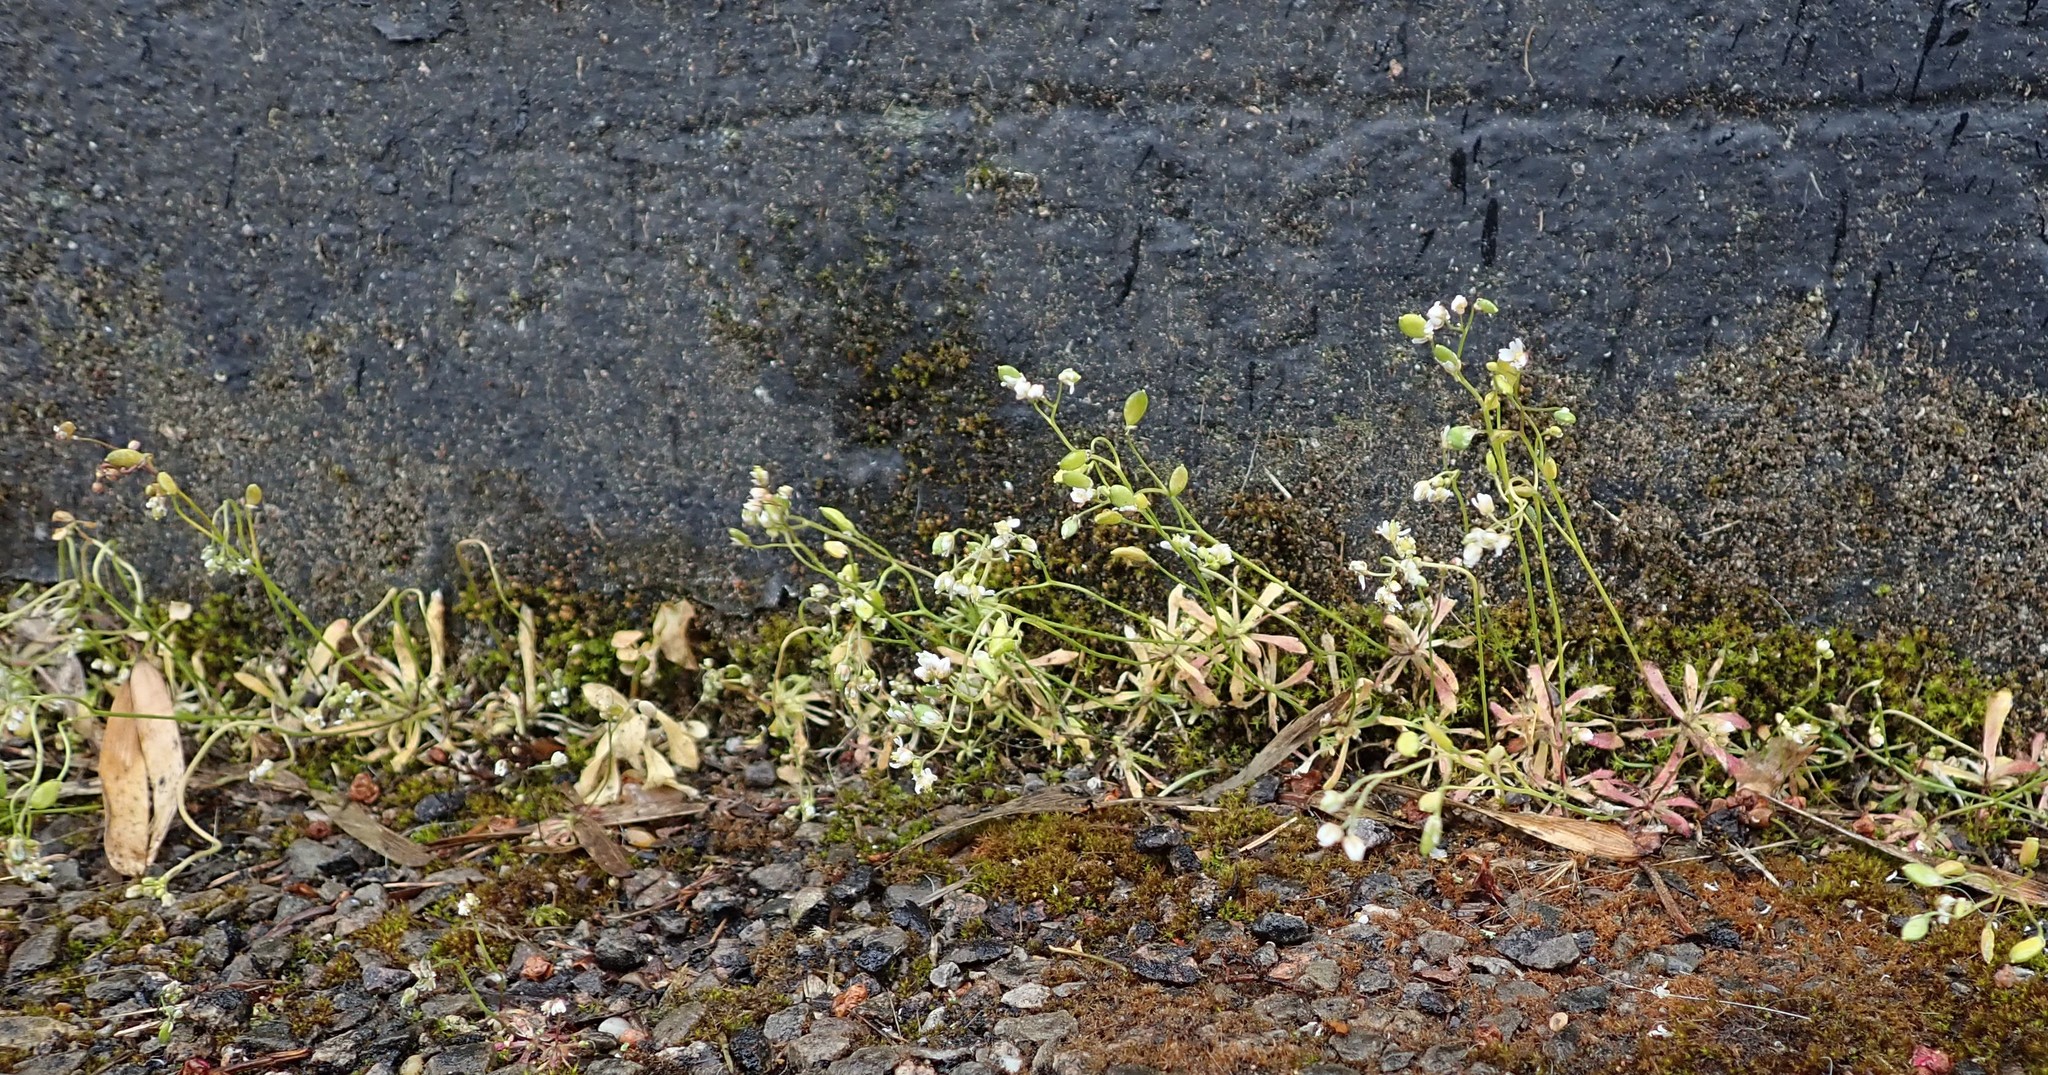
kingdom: Plantae
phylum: Tracheophyta
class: Magnoliopsida
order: Brassicales
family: Brassicaceae
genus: Draba
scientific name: Draba verna
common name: Spring draba
